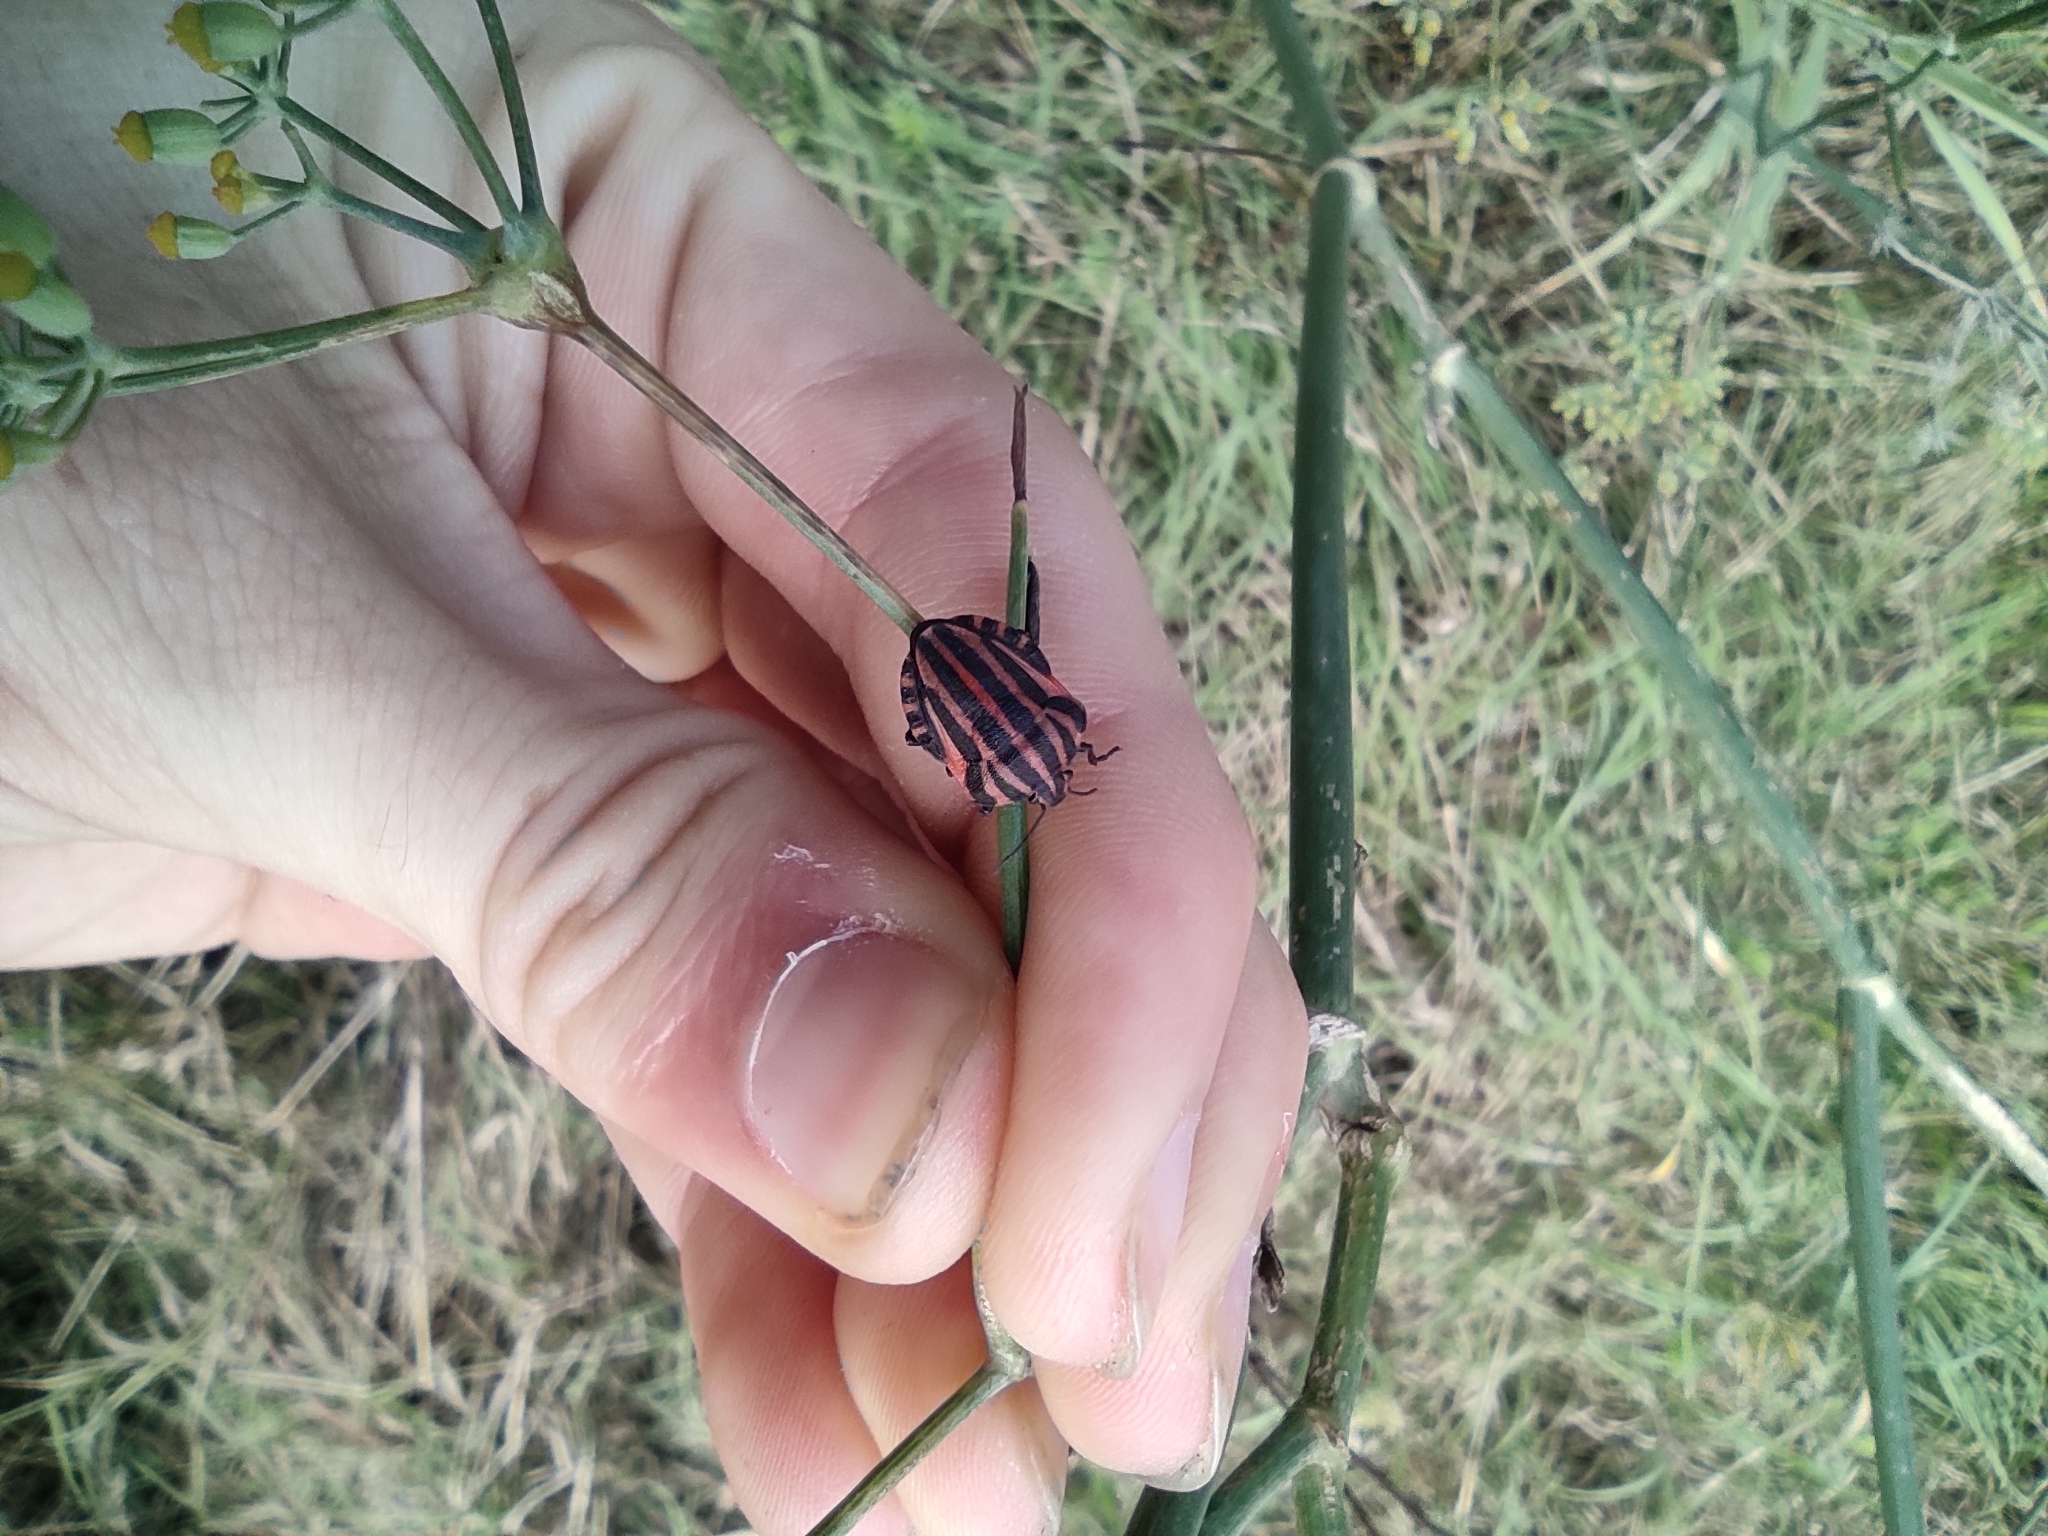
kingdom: Animalia
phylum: Arthropoda
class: Insecta
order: Hemiptera
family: Pentatomidae
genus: Graphosoma
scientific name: Graphosoma italicum
